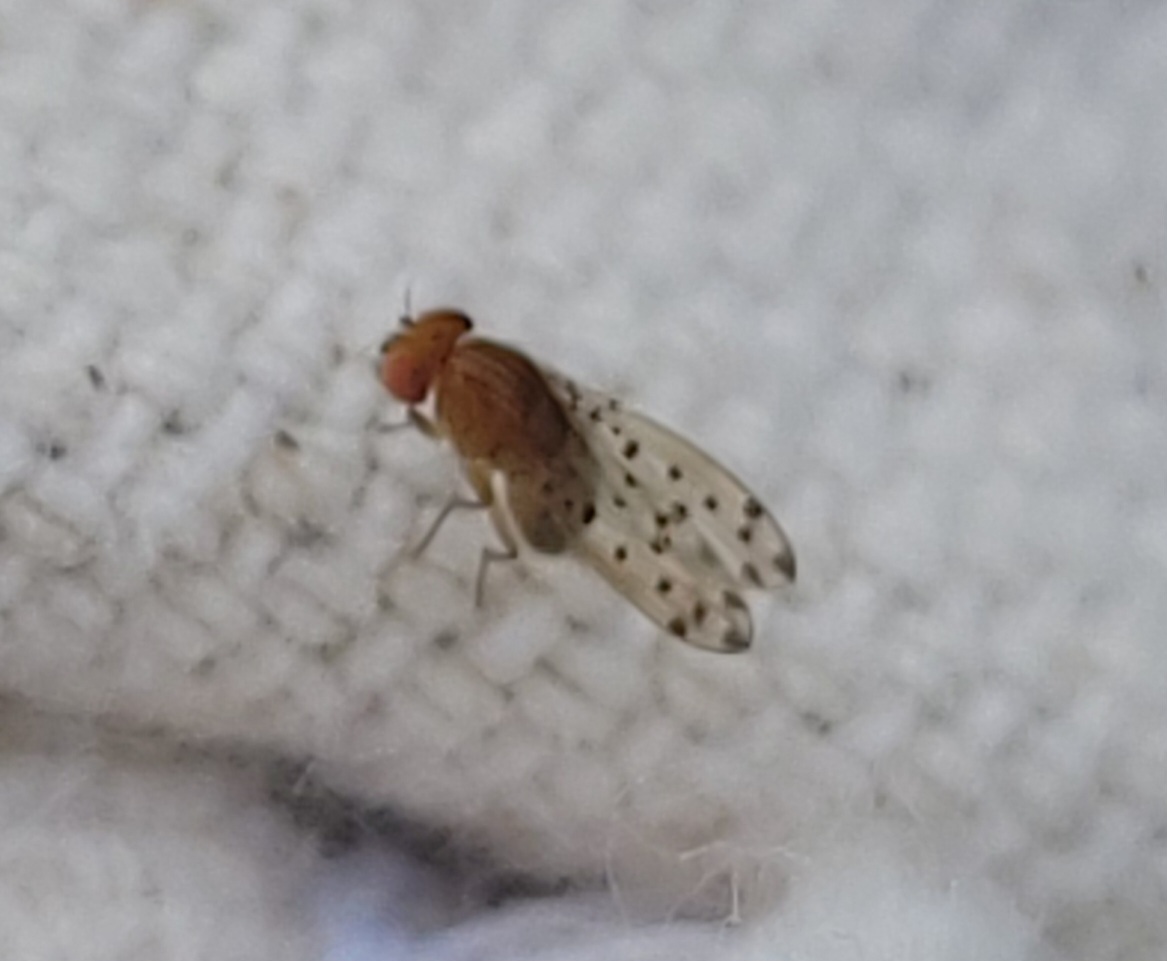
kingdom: Animalia
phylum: Arthropoda
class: Insecta
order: Diptera
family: Drosophilidae
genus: Drosophila
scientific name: Drosophila guttifera
